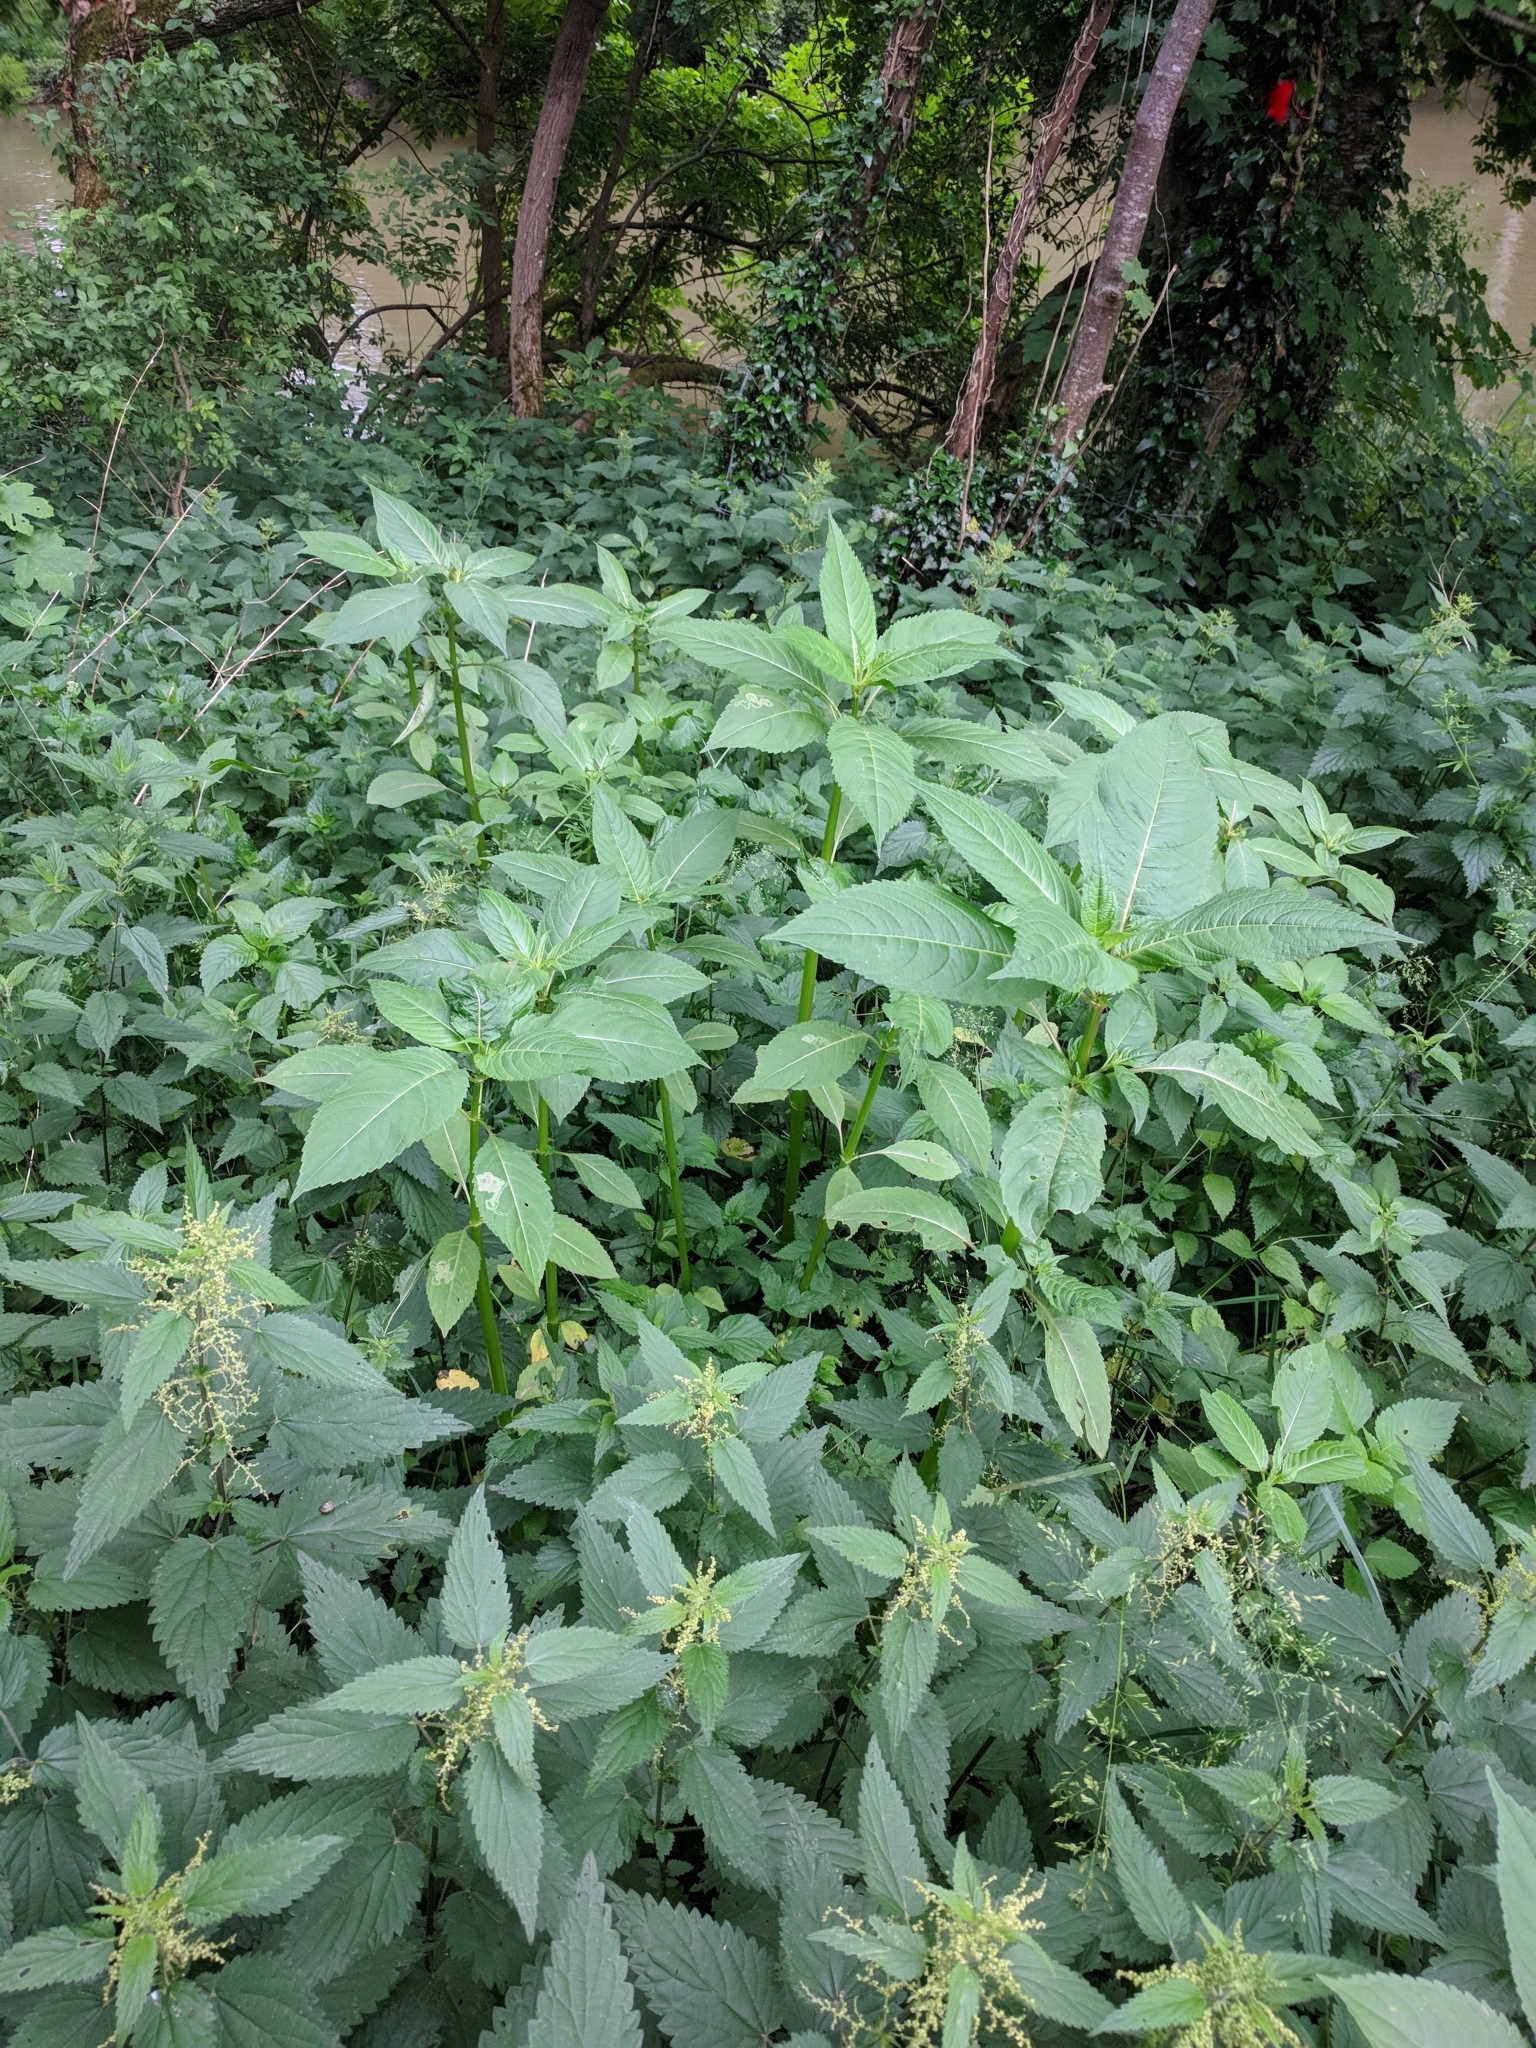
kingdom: Plantae
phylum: Tracheophyta
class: Magnoliopsida
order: Ericales
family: Balsaminaceae
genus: Impatiens
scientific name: Impatiens glandulifera
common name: Himalayan balsam
